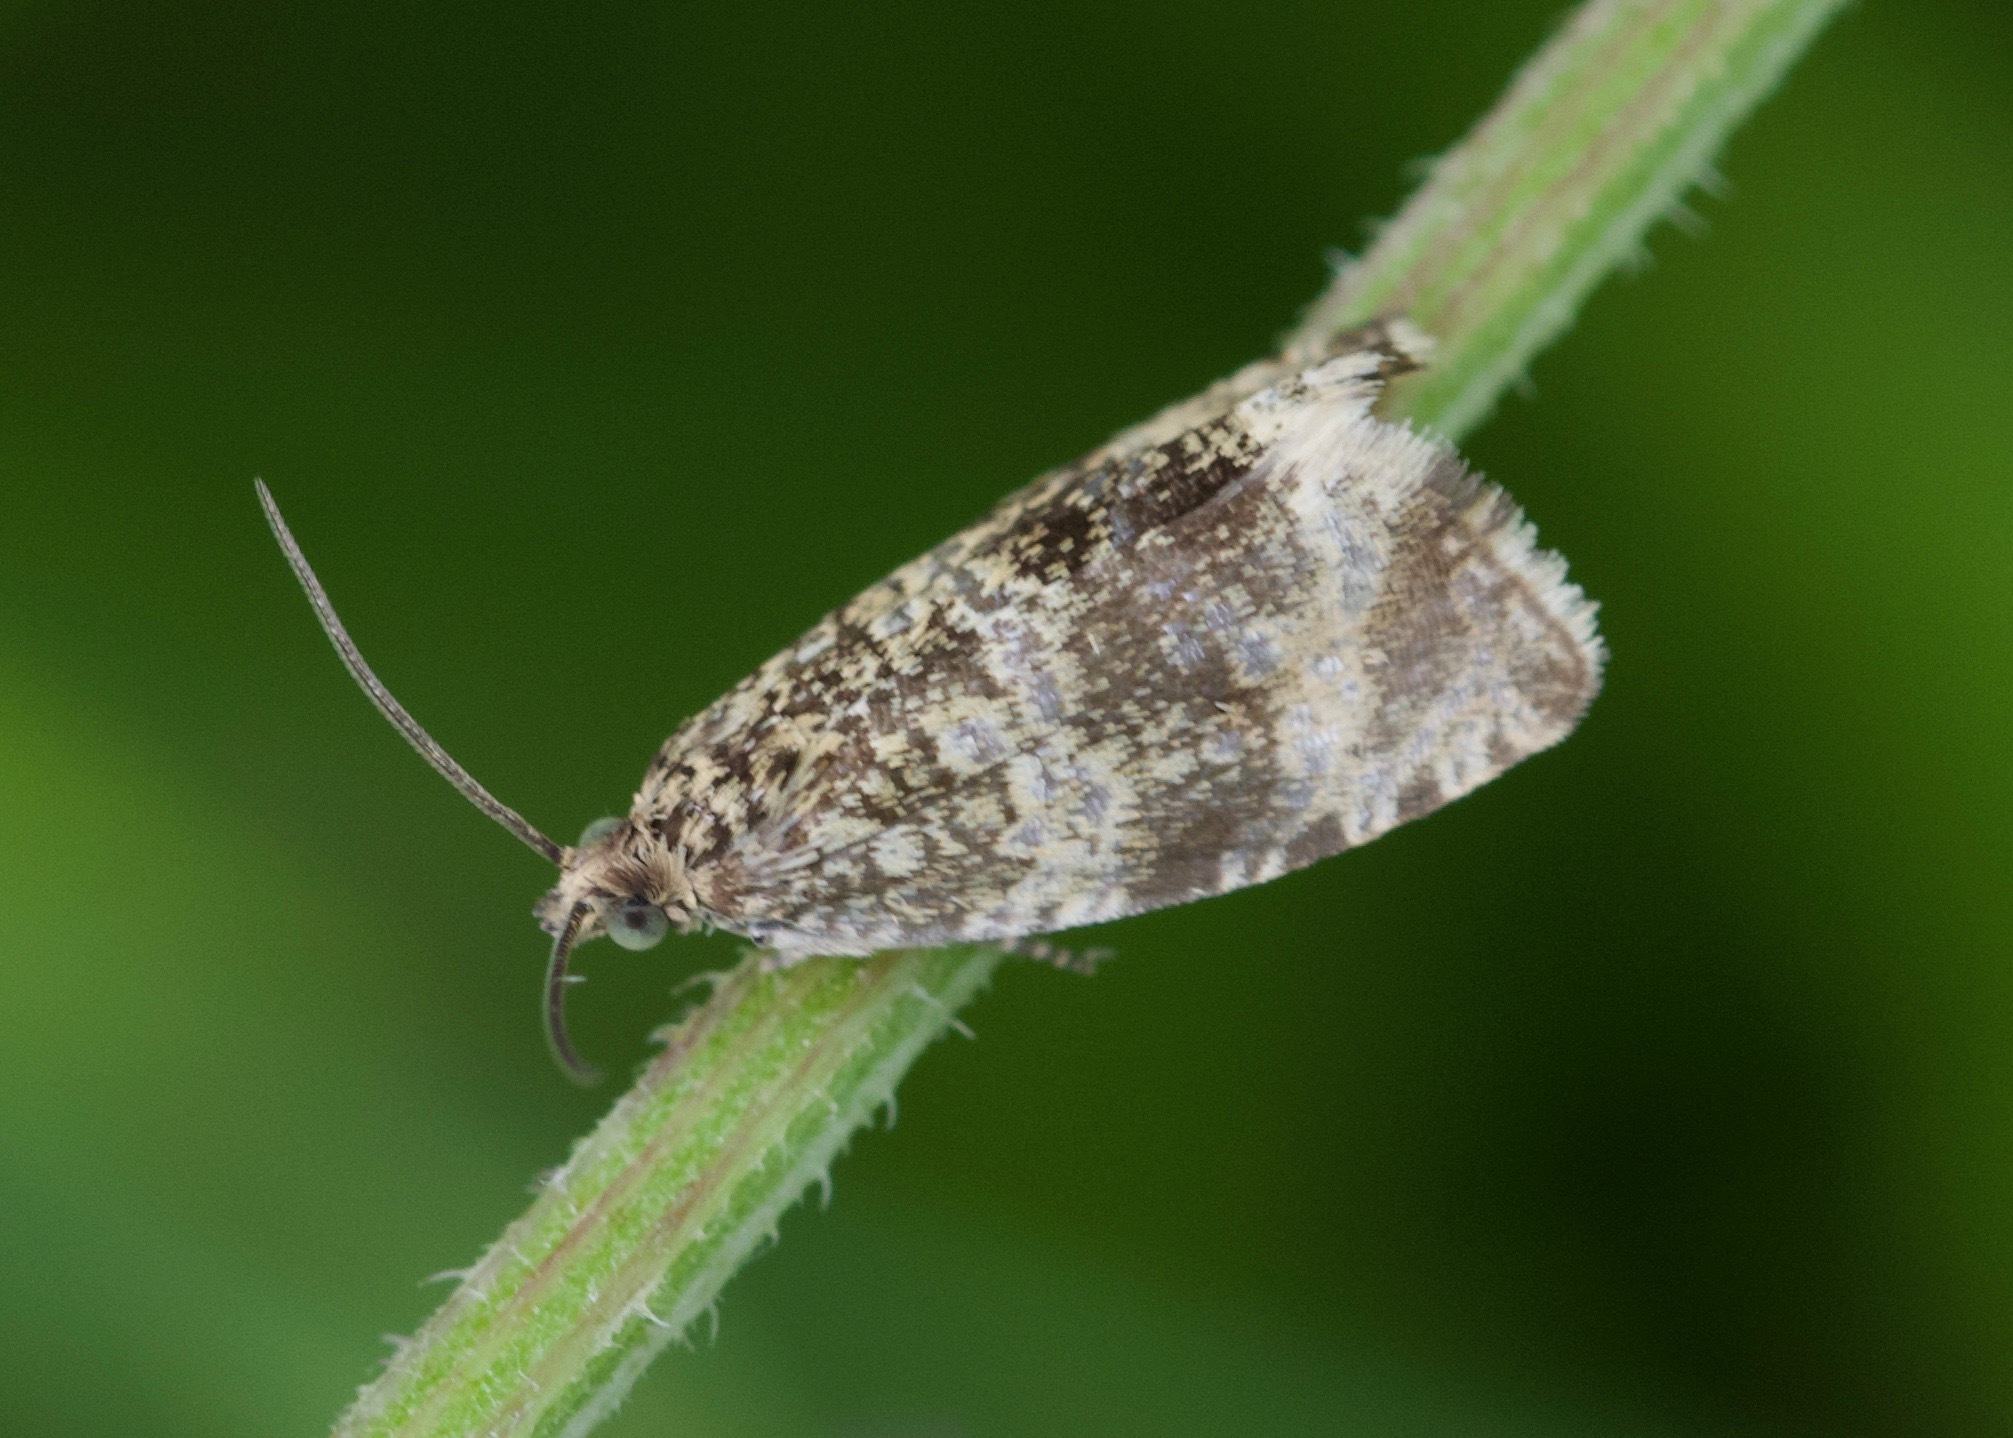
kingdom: Animalia
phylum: Arthropoda
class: Insecta
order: Lepidoptera
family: Tortricidae
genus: Syricoris
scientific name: Syricoris lacunana
